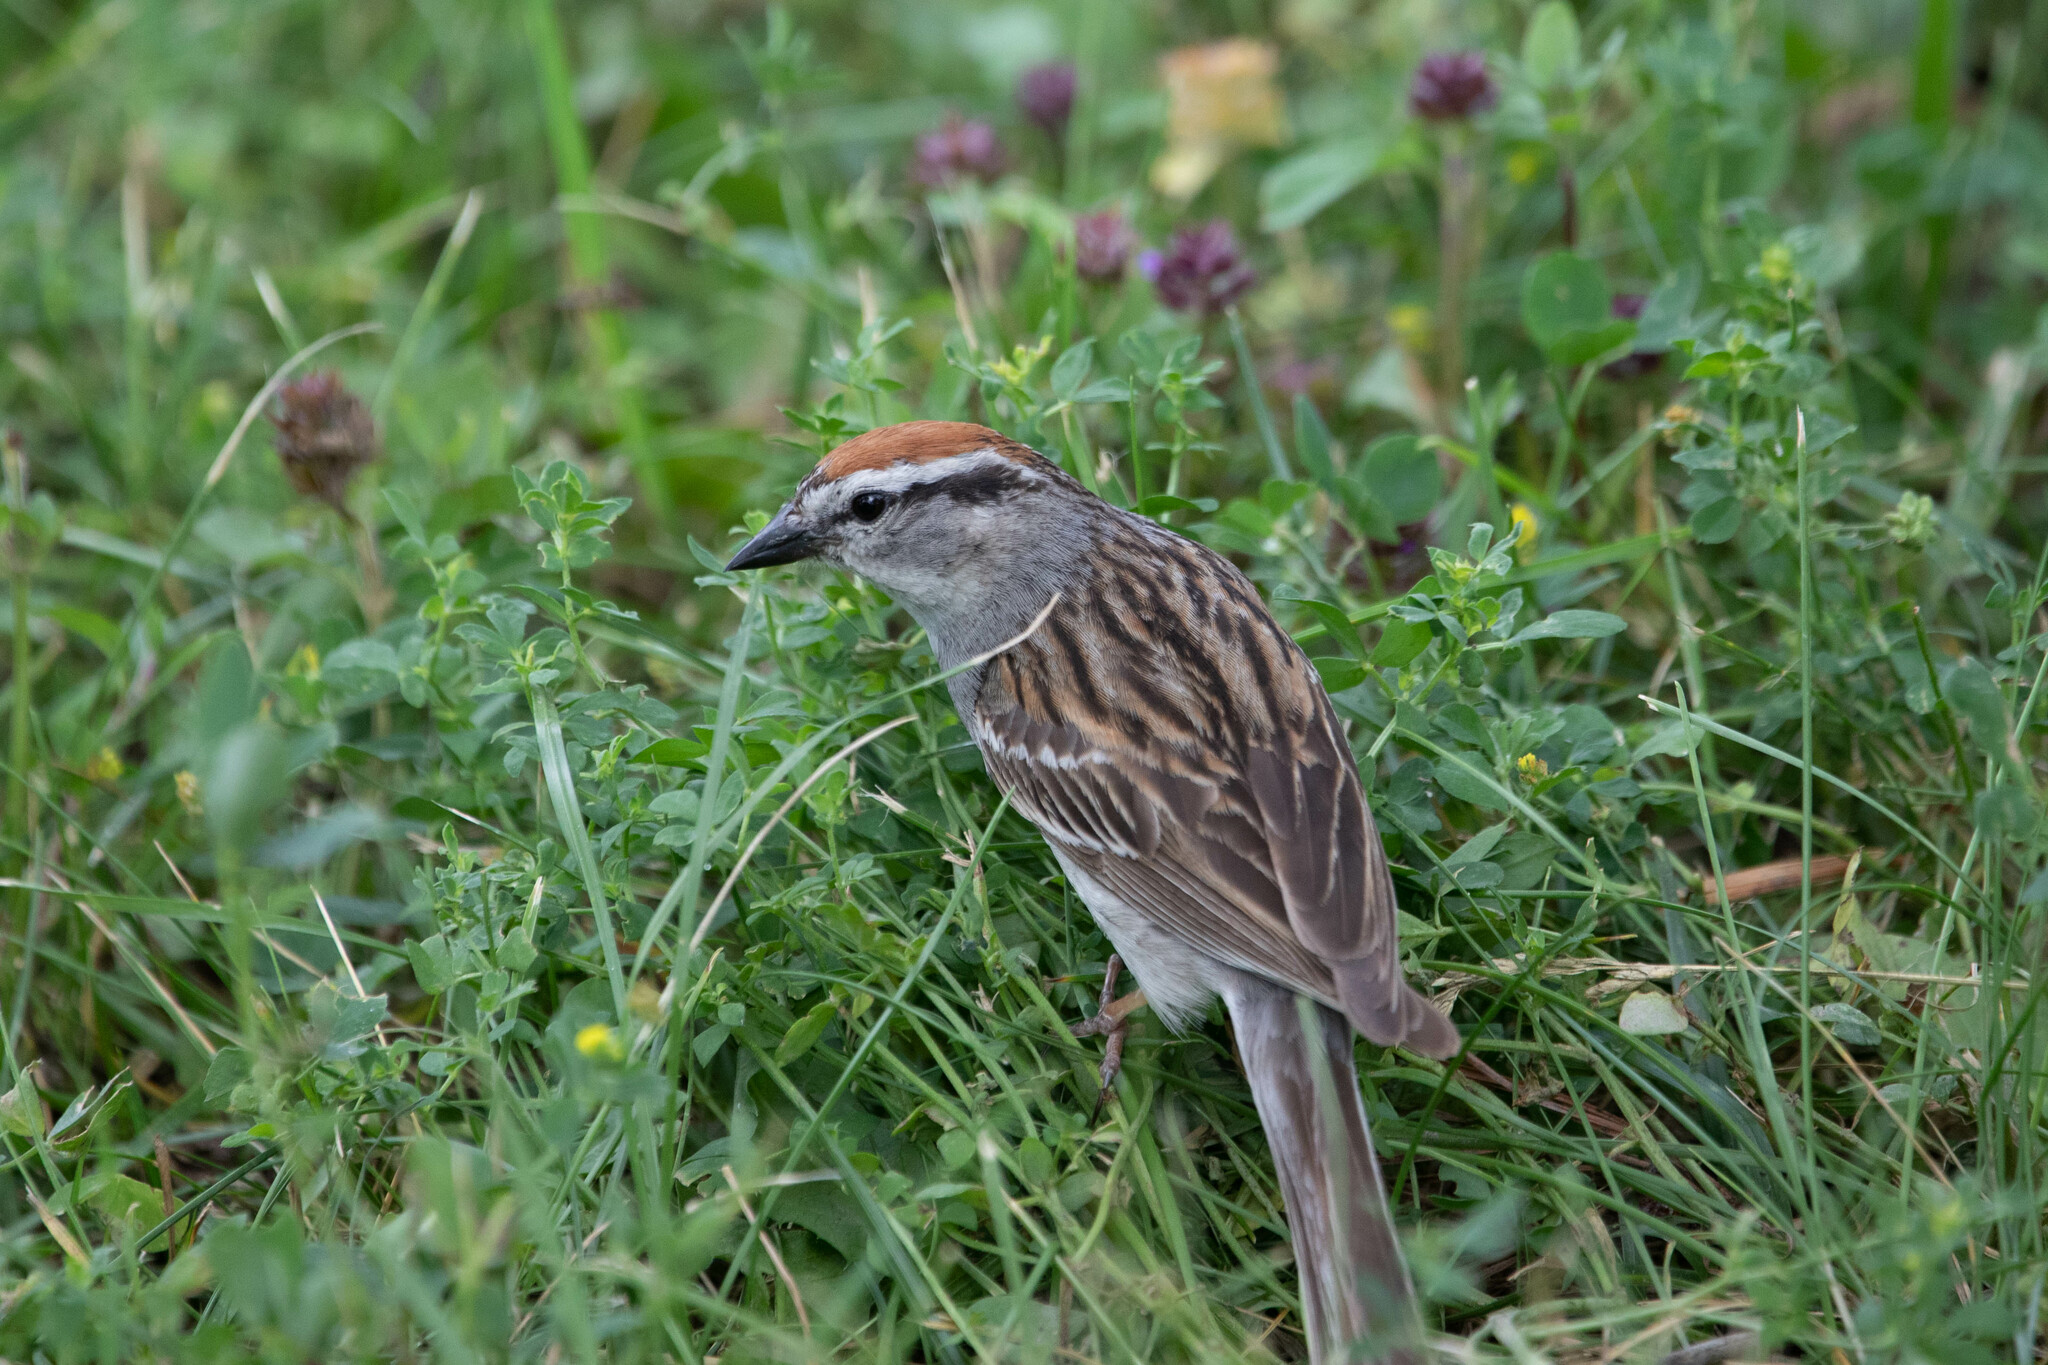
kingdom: Animalia
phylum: Chordata
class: Aves
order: Passeriformes
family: Passerellidae
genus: Spizella
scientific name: Spizella passerina
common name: Chipping sparrow
